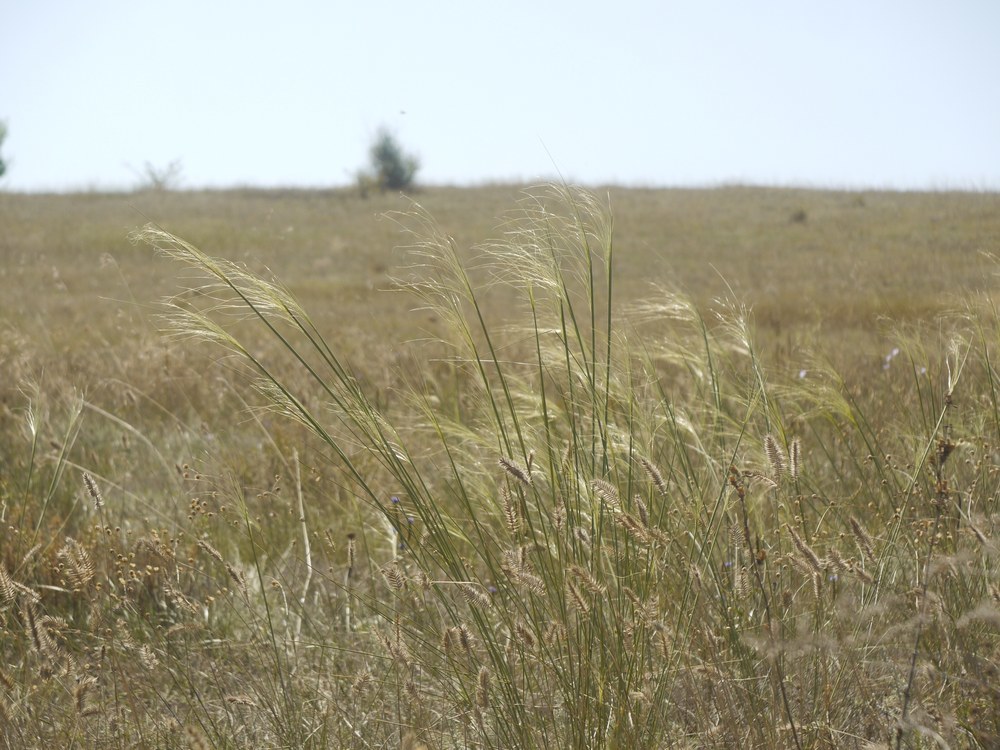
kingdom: Plantae
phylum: Tracheophyta
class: Liliopsida
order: Poales
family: Poaceae
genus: Stipa
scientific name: Stipa capillata
